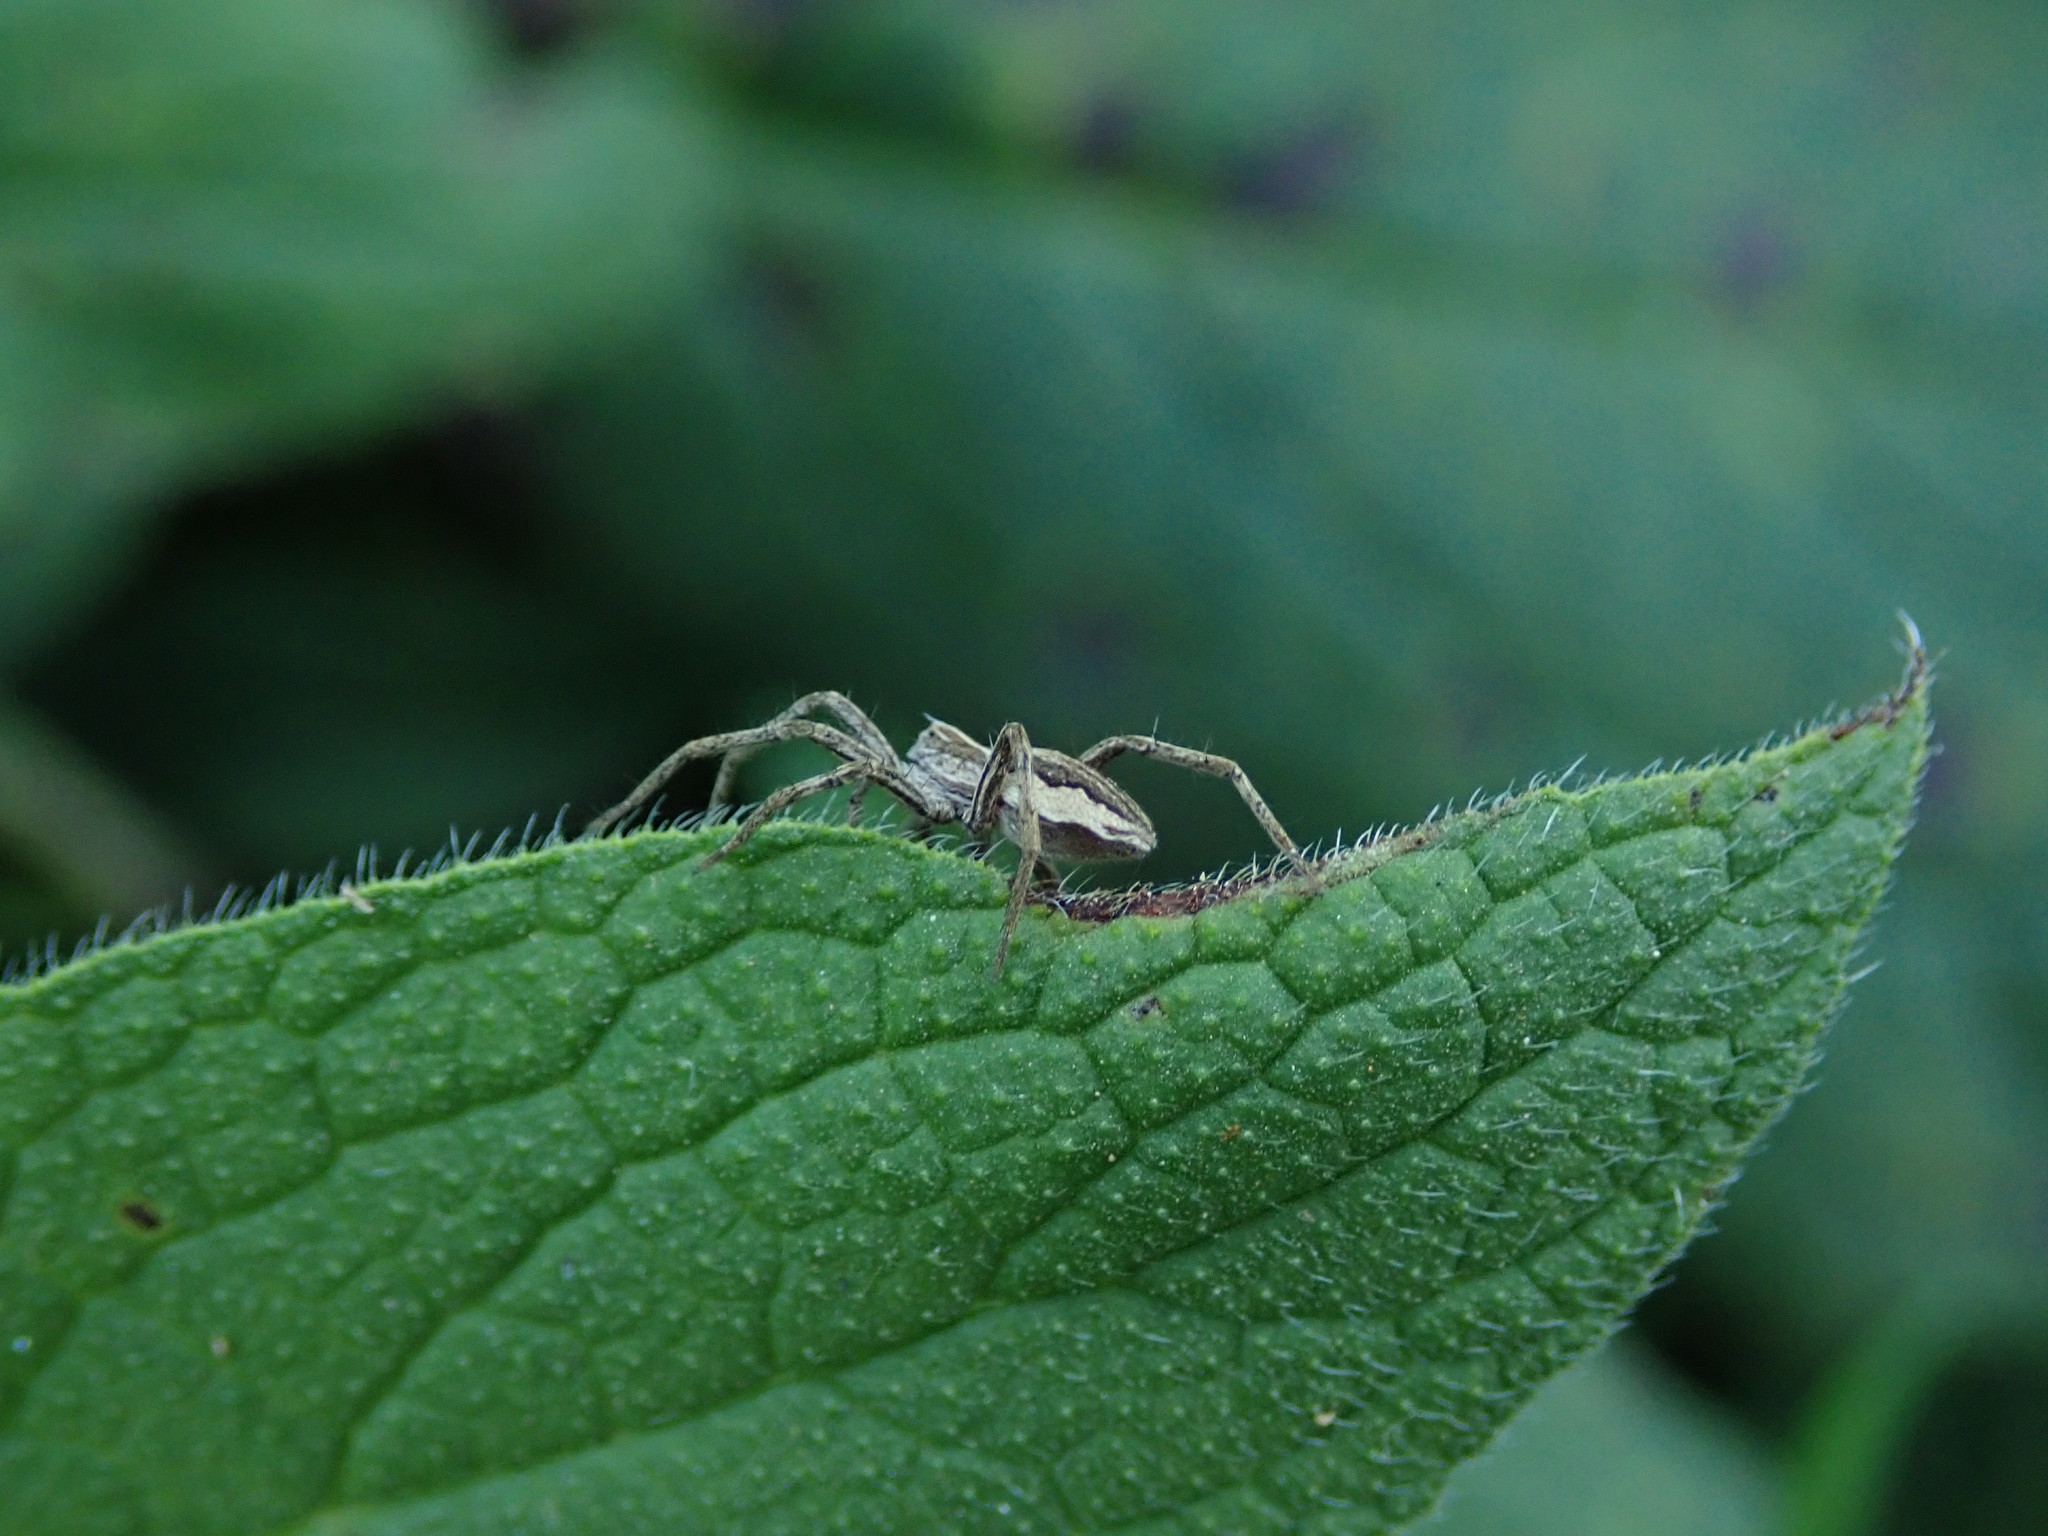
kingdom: Animalia
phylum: Arthropoda
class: Arachnida
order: Araneae
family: Pisauridae
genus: Pisaura
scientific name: Pisaura mirabilis
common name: Tent spider
